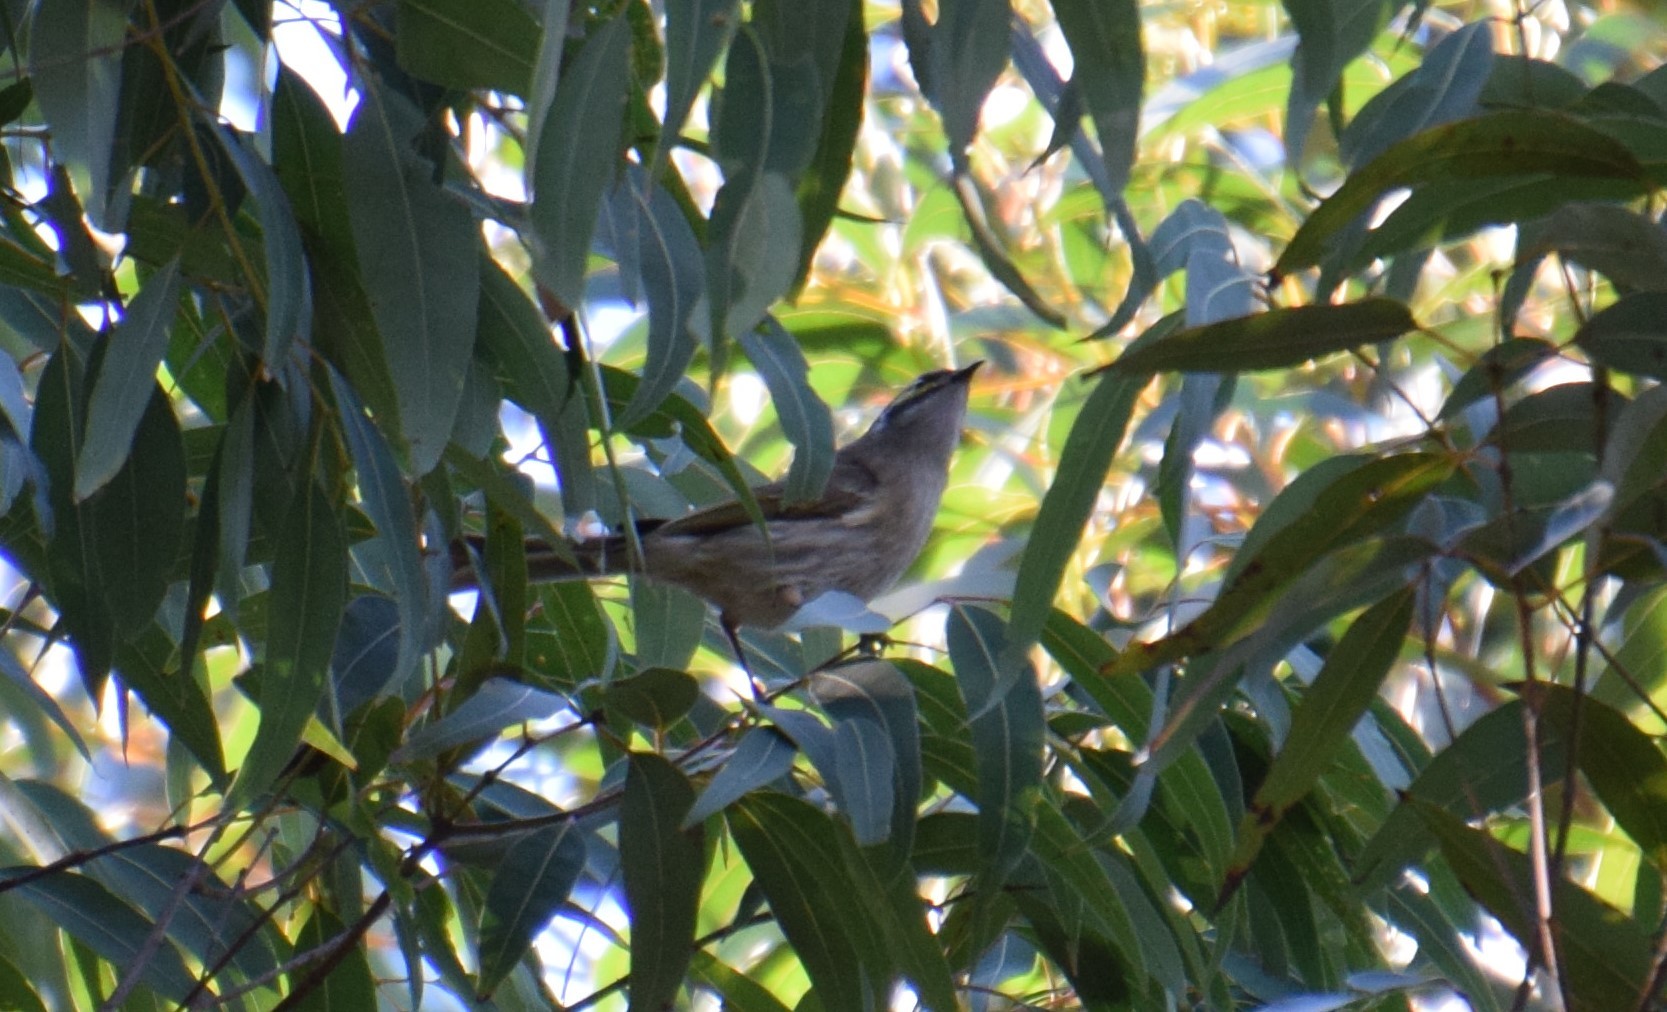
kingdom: Animalia
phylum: Chordata
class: Aves
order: Passeriformes
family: Meliphagidae
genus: Caligavis
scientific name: Caligavis chrysops
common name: Yellow-faced honeyeater
